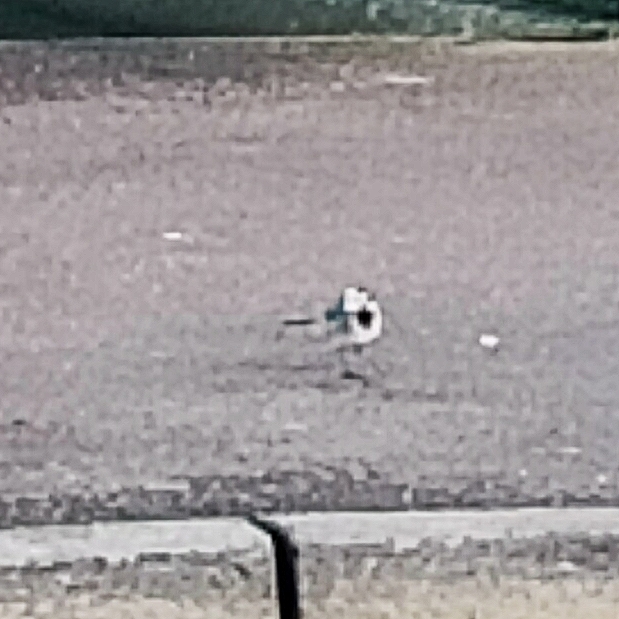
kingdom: Animalia
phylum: Chordata
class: Aves
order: Passeriformes
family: Motacillidae
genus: Motacilla
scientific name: Motacilla alba
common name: White wagtail
